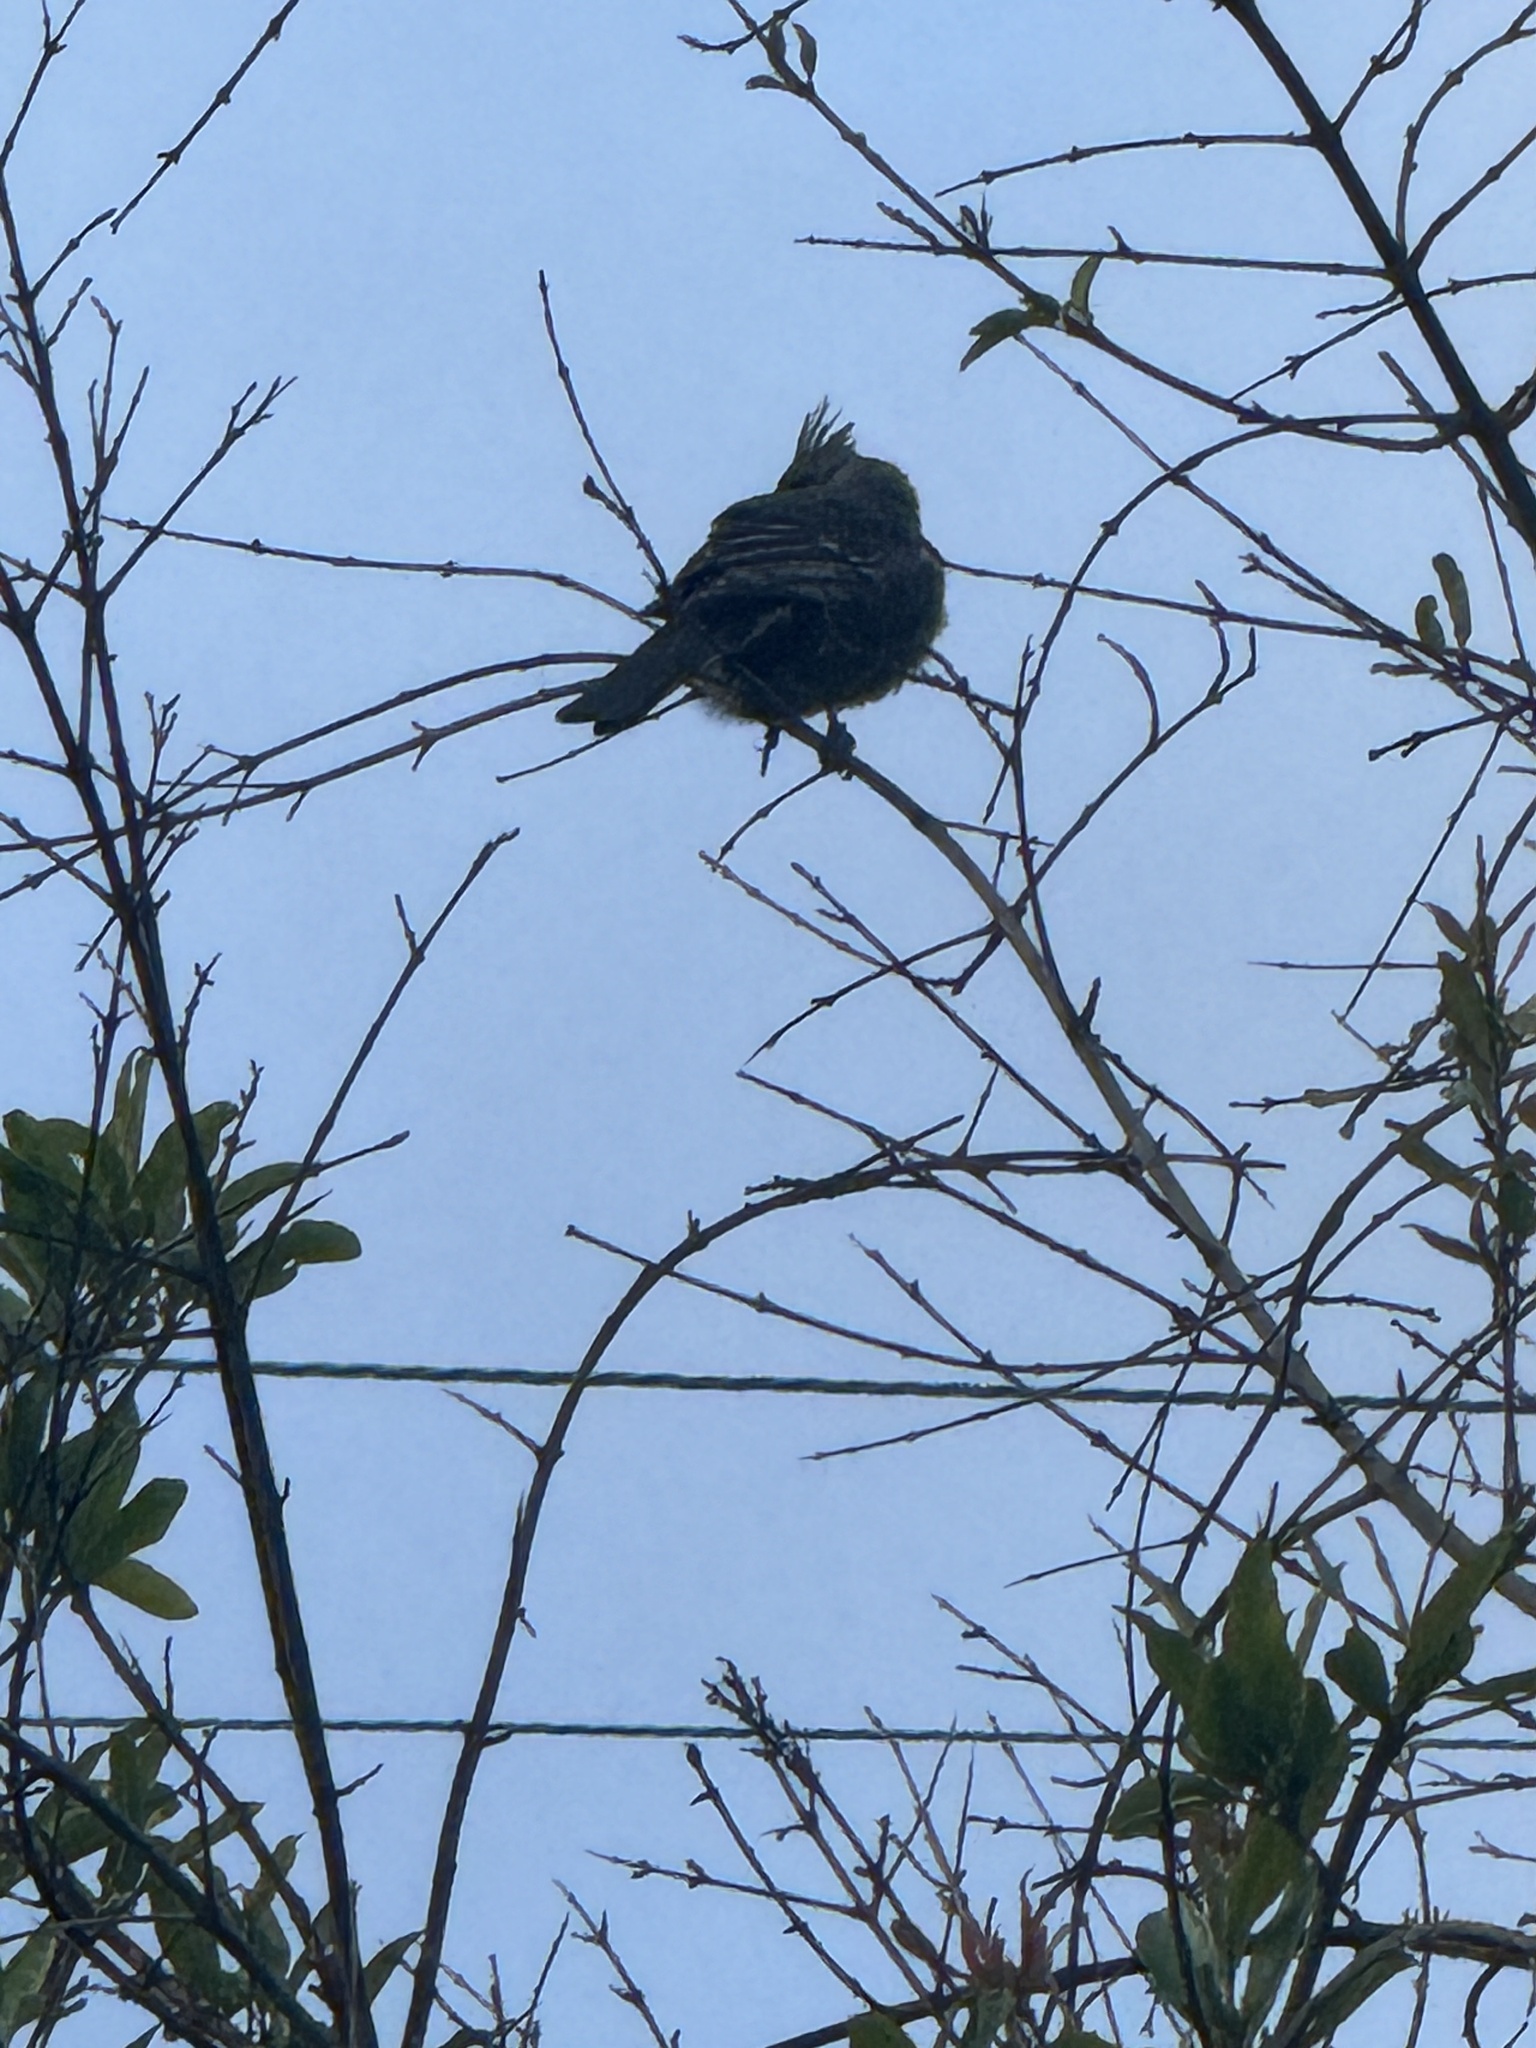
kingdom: Animalia
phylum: Chordata
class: Aves
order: Passeriformes
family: Ptilogonatidae
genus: Phainopepla
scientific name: Phainopepla nitens
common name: Phainopepla
